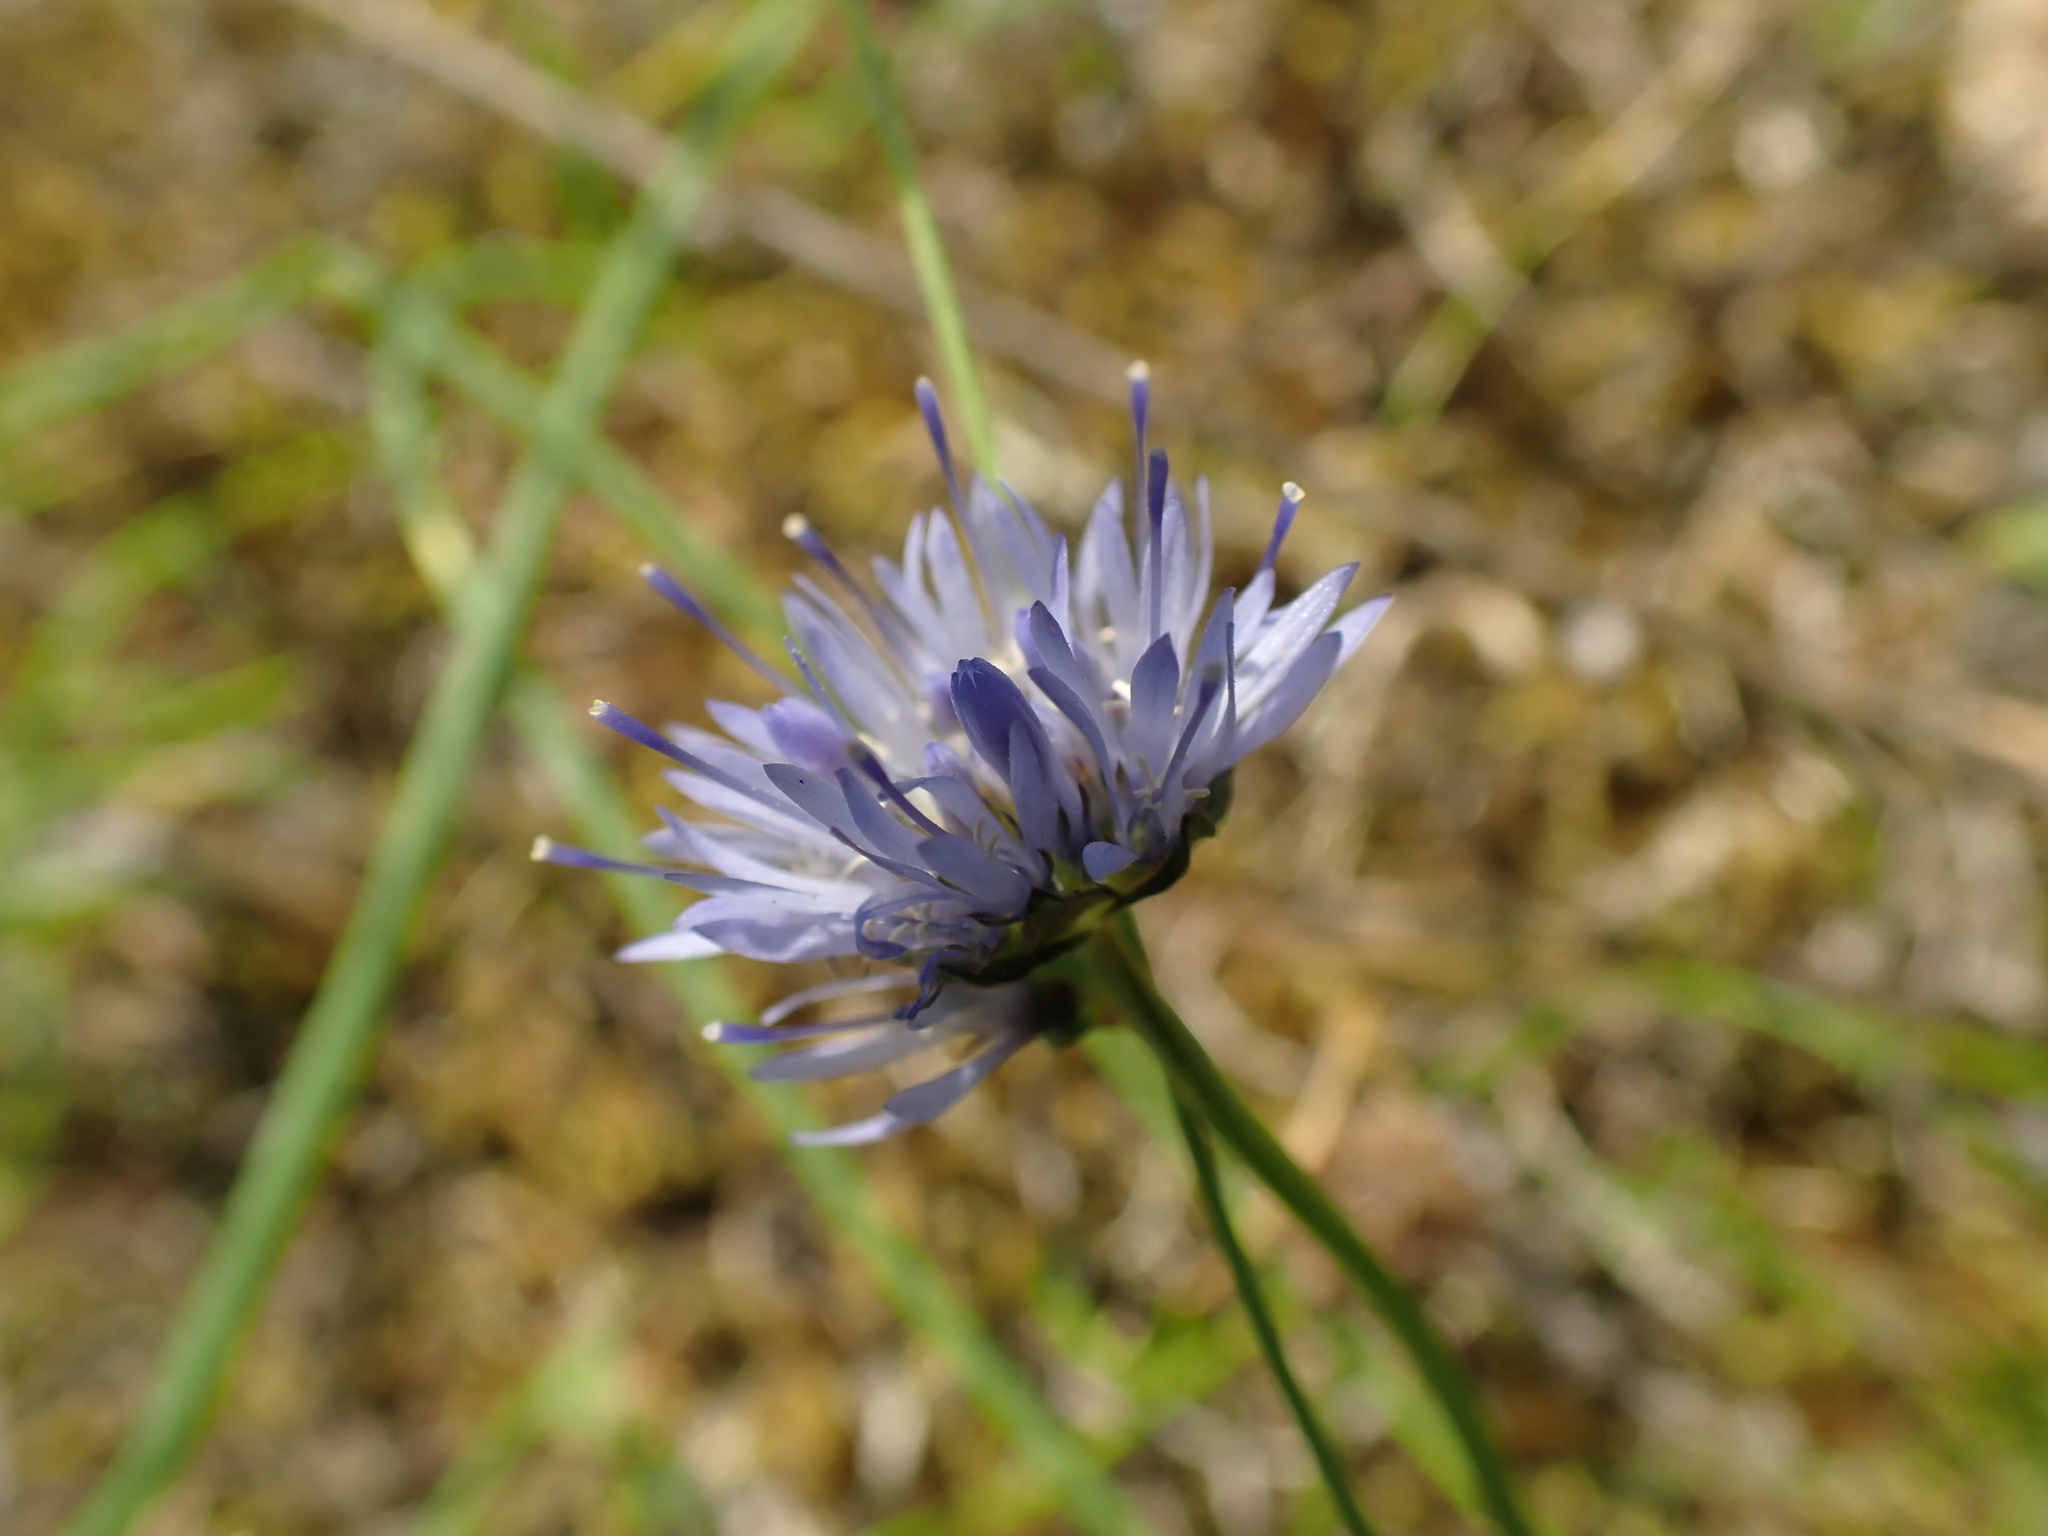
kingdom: Plantae
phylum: Tracheophyta
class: Magnoliopsida
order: Asterales
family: Campanulaceae
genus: Jasione
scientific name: Jasione montana
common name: Sheep's-bit
